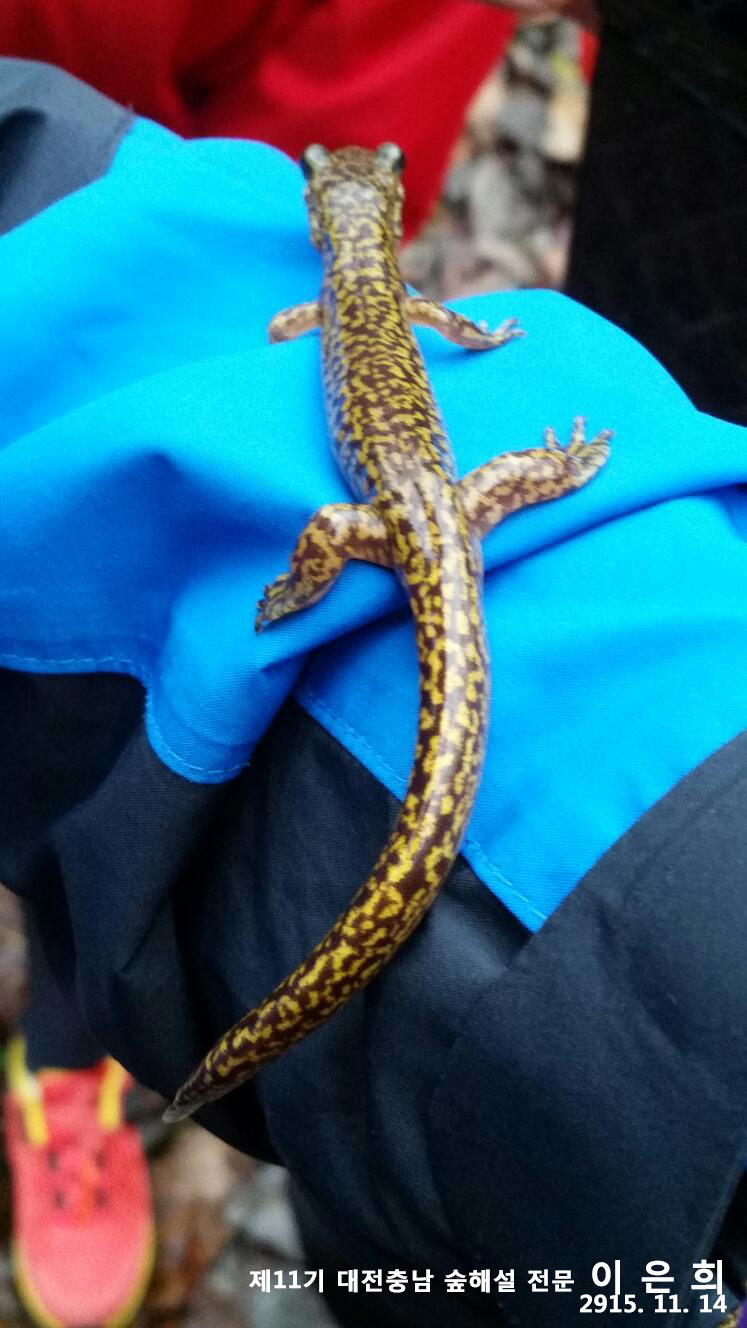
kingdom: Animalia
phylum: Chordata
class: Amphibia
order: Caudata
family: Hynobiidae
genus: Onychodactylus
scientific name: Onychodactylus koreanus
